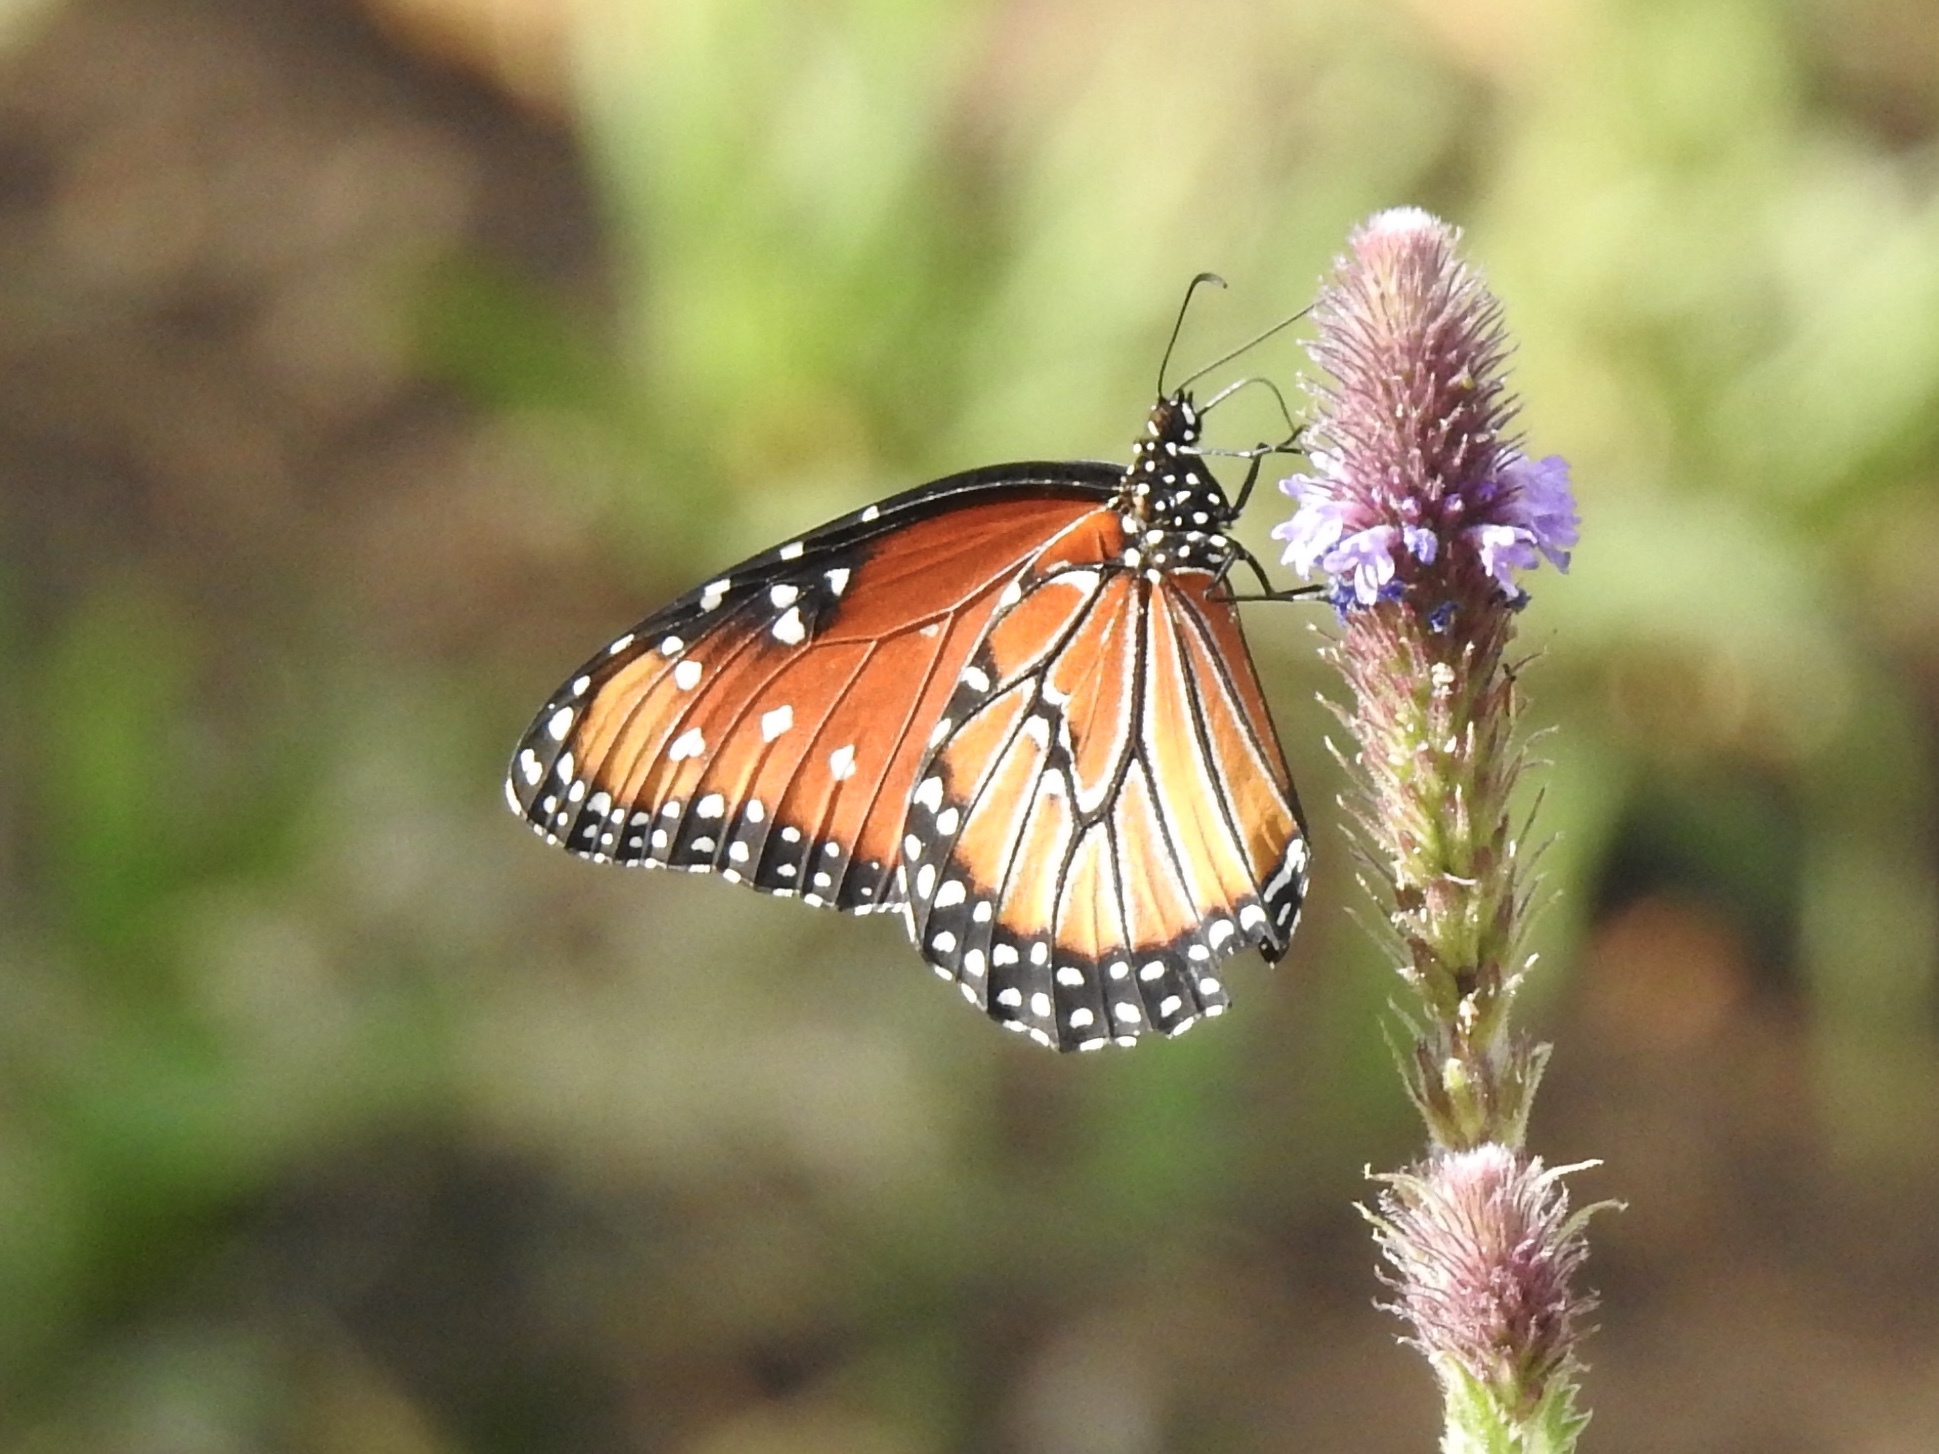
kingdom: Animalia
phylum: Arthropoda
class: Insecta
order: Lepidoptera
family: Nymphalidae
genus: Danaus
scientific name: Danaus gilippus
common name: Queen
